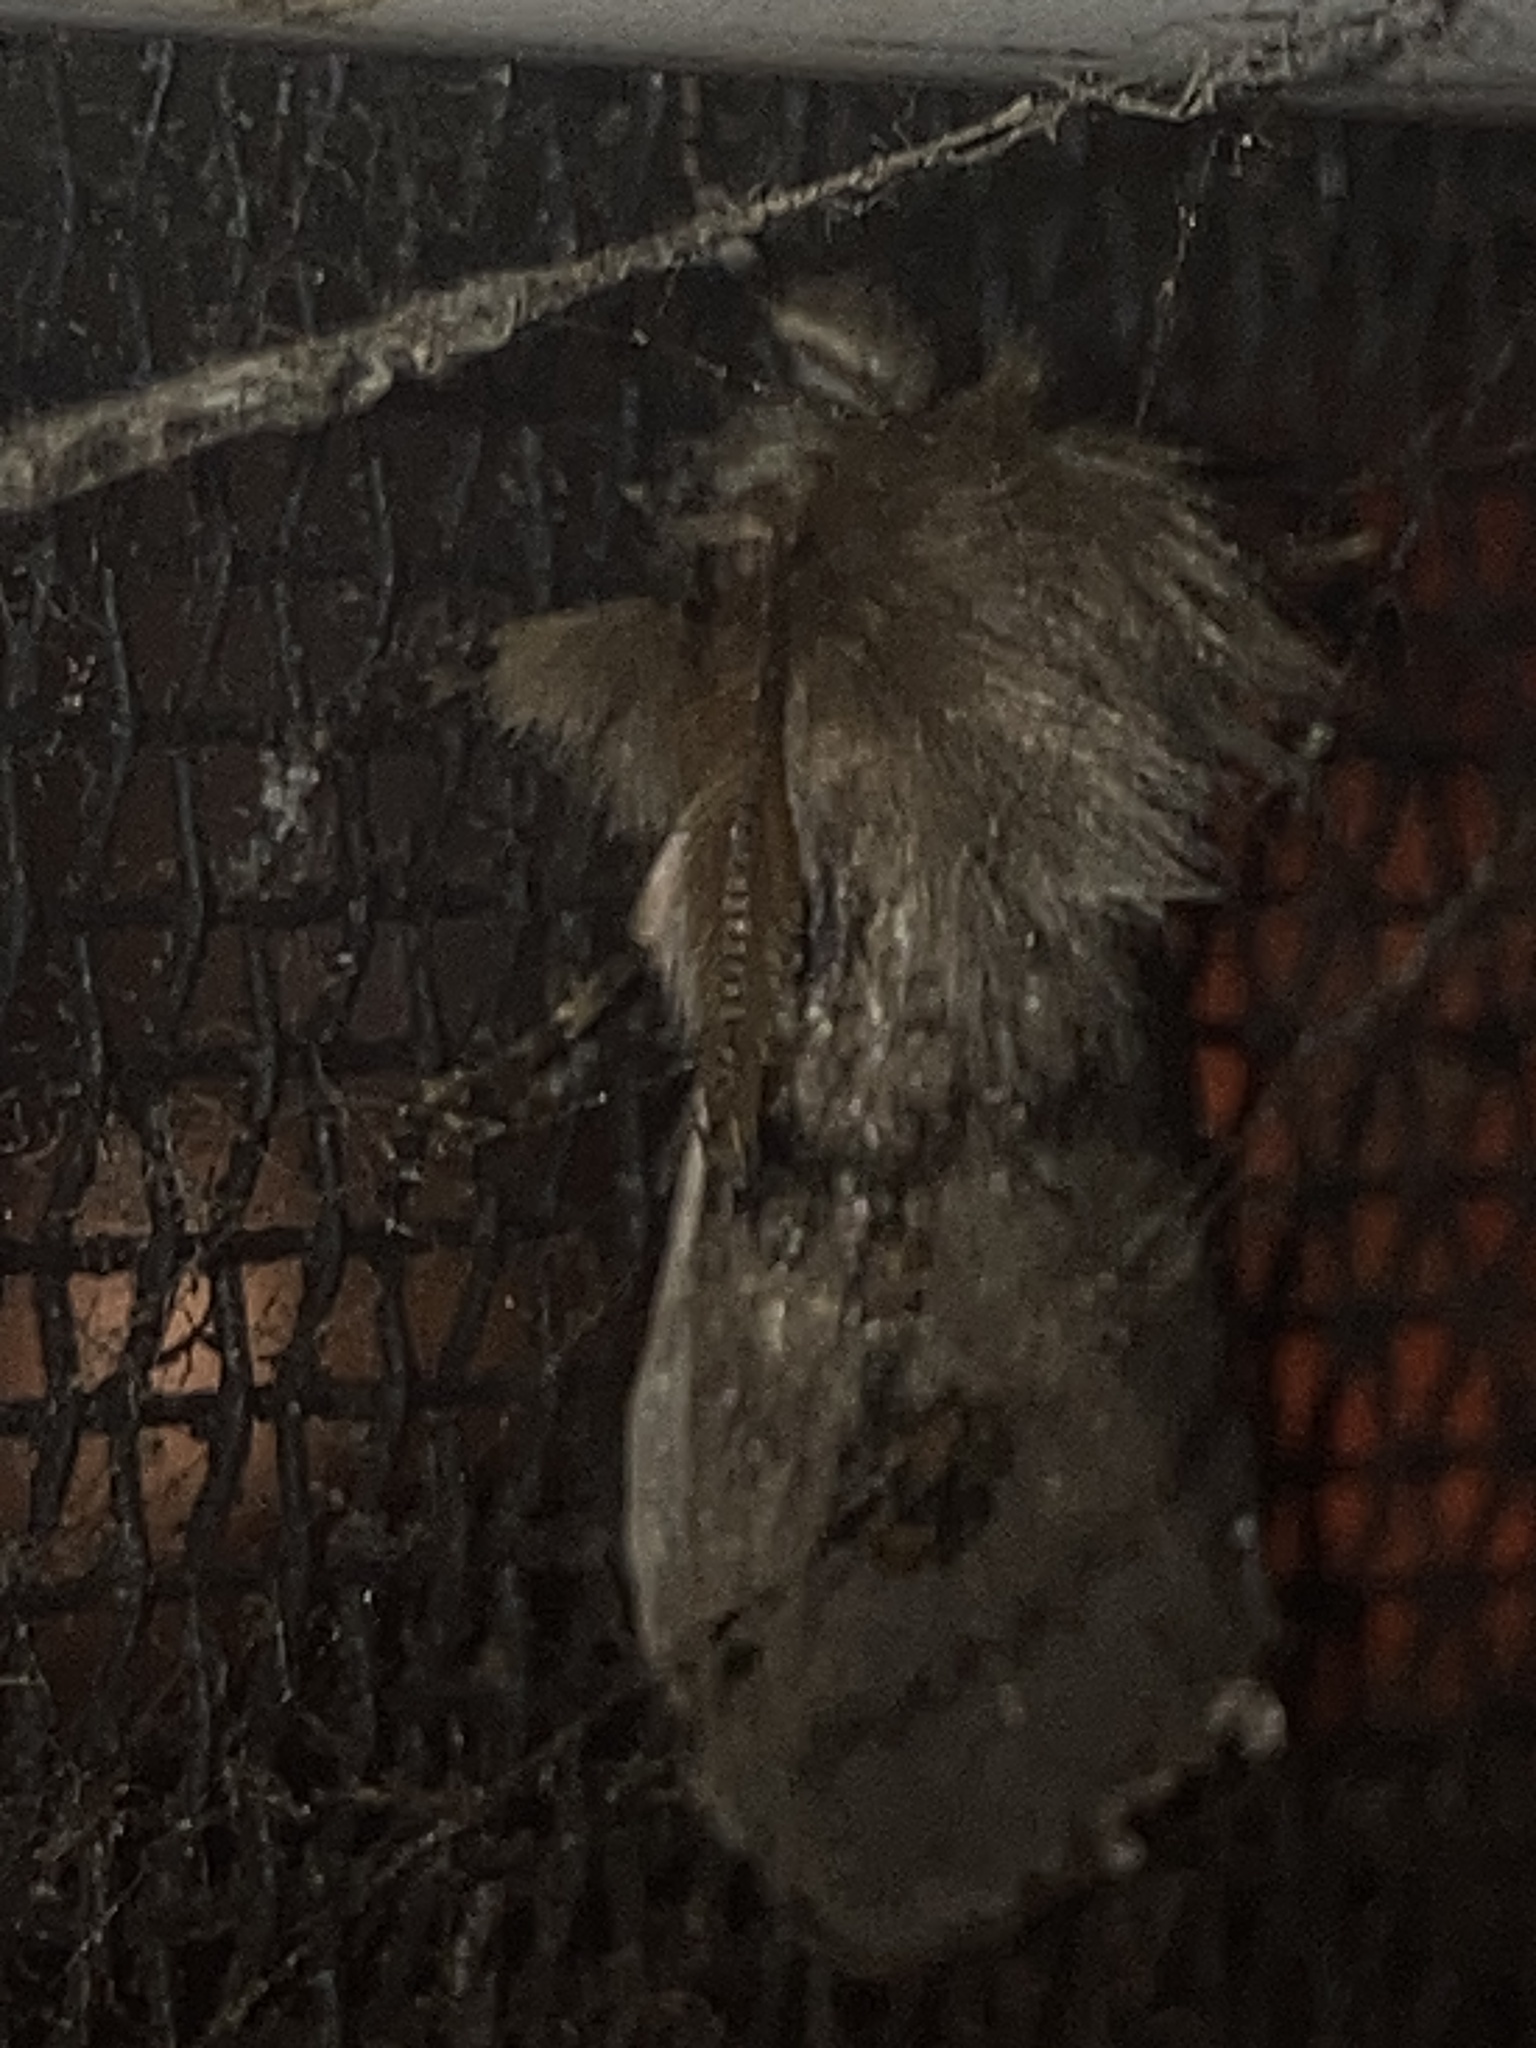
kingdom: Animalia
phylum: Arthropoda
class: Insecta
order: Lepidoptera
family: Erebidae
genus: Leptocneria
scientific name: Leptocneria reducta
